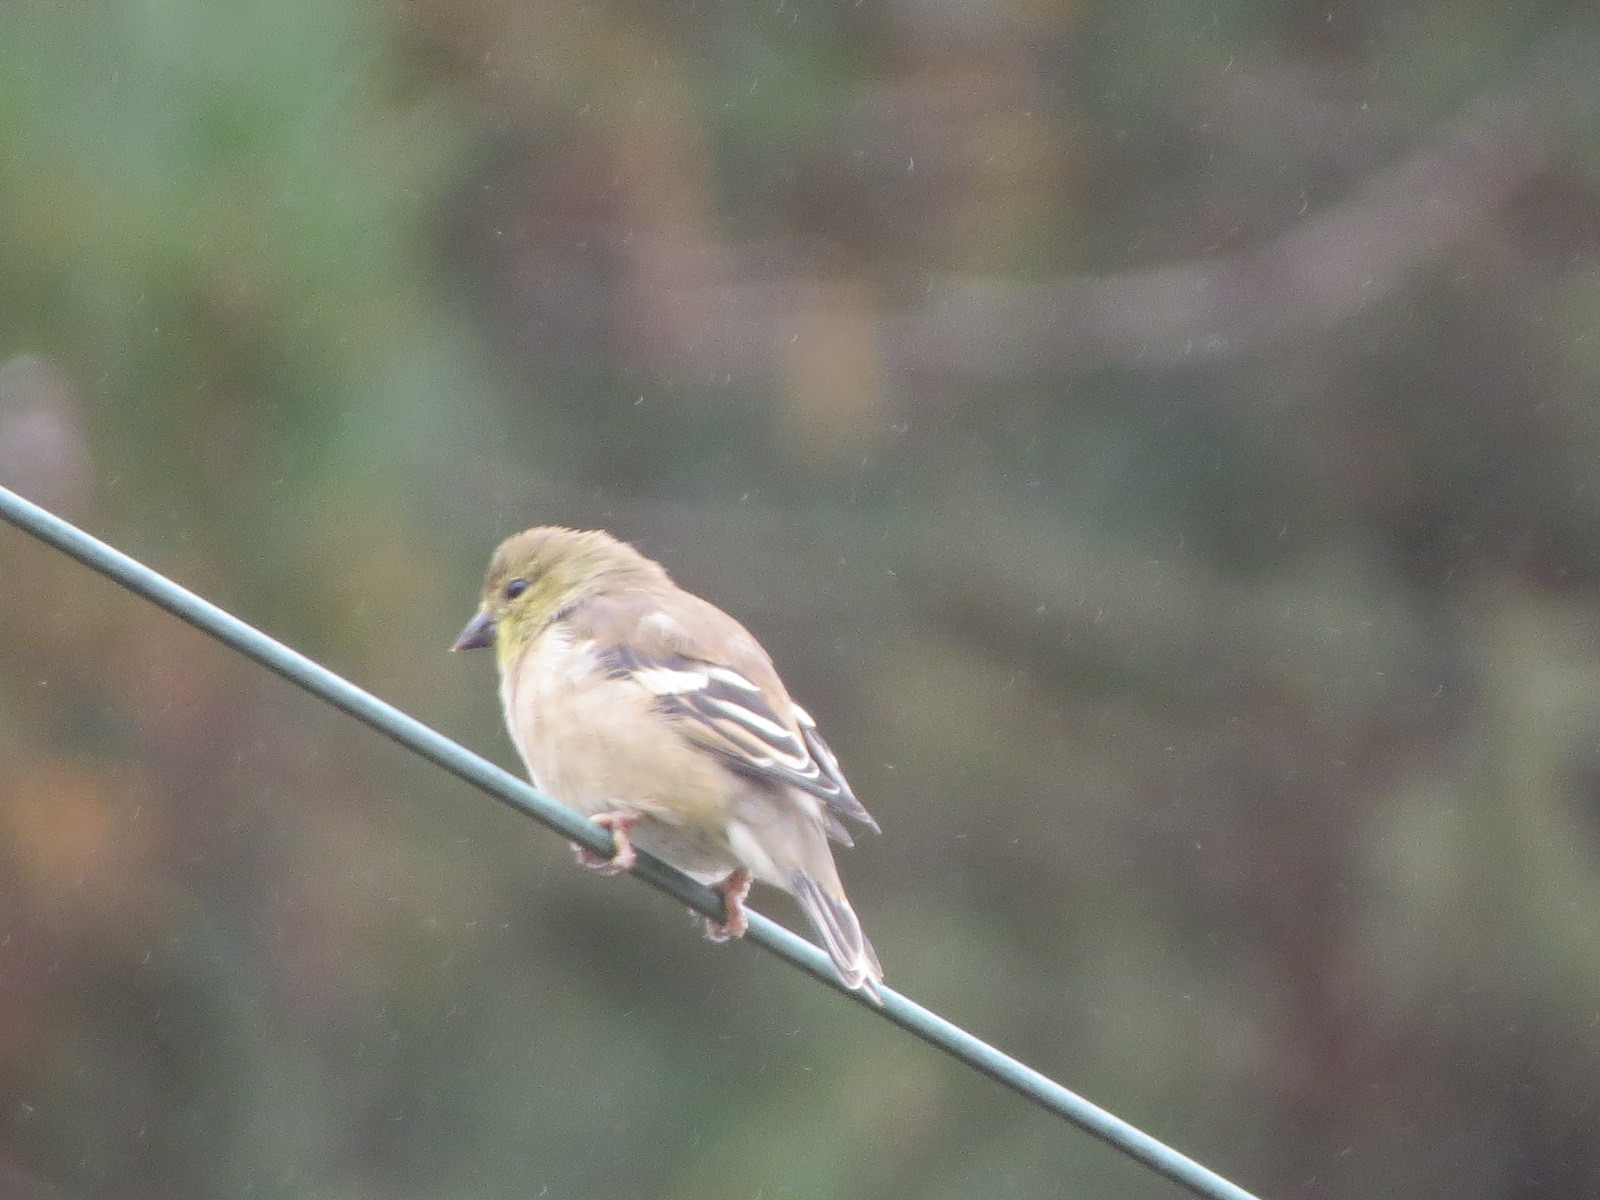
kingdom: Animalia
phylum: Chordata
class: Aves
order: Passeriformes
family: Fringillidae
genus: Spinus
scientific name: Spinus tristis
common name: American goldfinch
